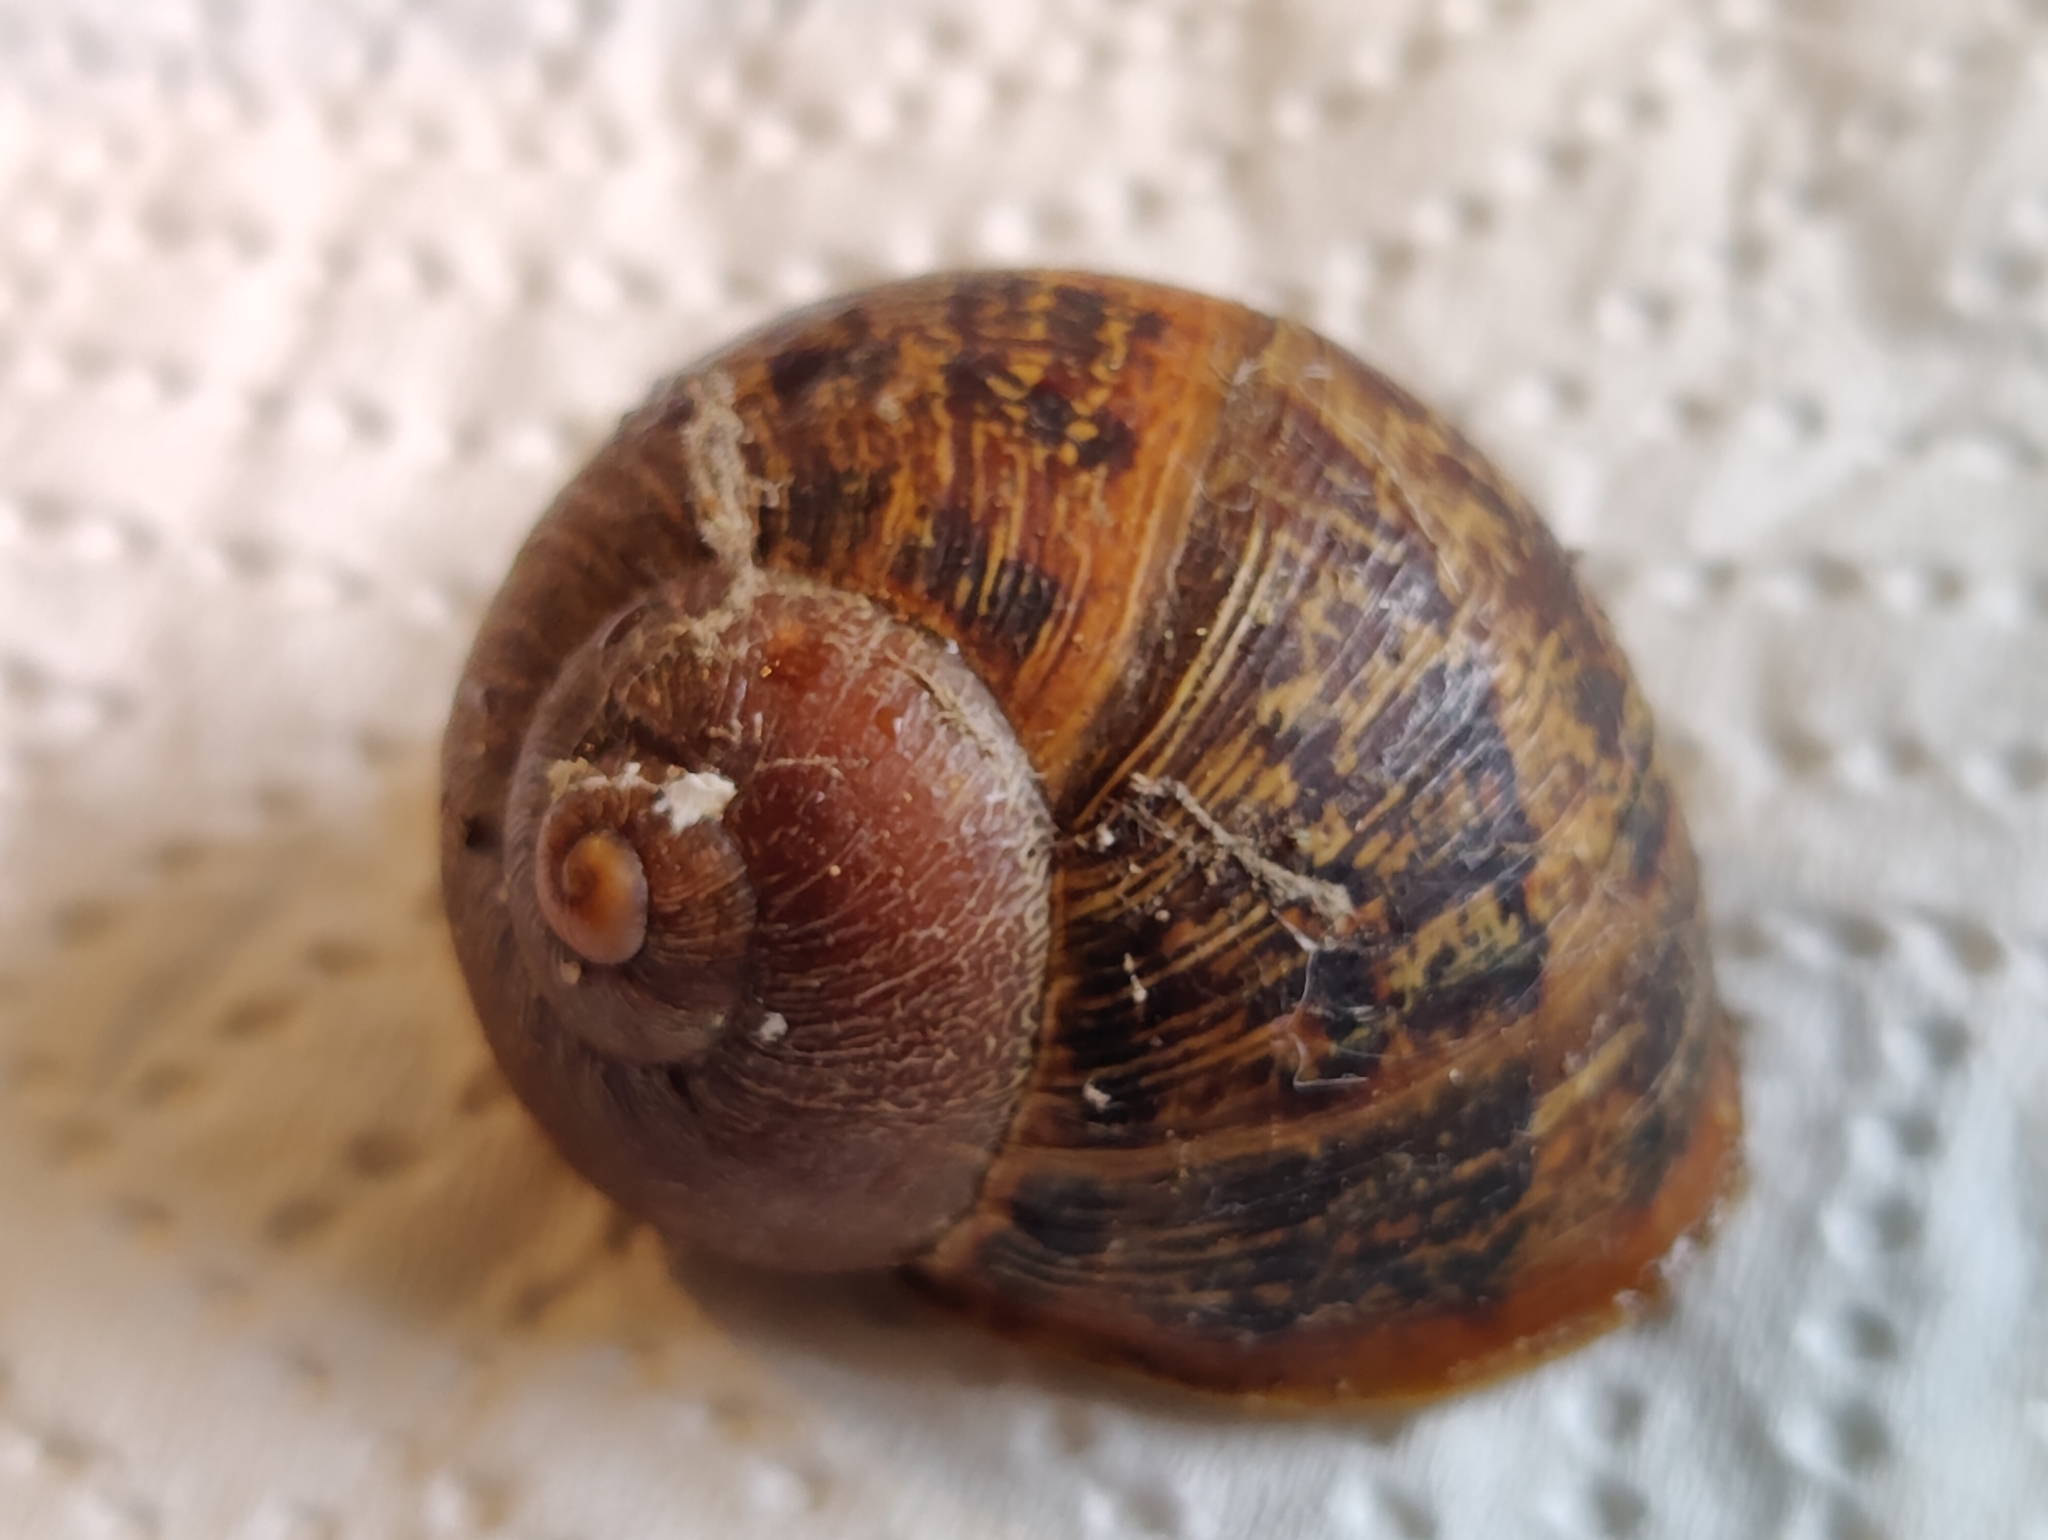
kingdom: Animalia
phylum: Mollusca
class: Gastropoda
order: Stylommatophora
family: Helicidae
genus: Cornu
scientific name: Cornu aspersum
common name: Brown garden snail
